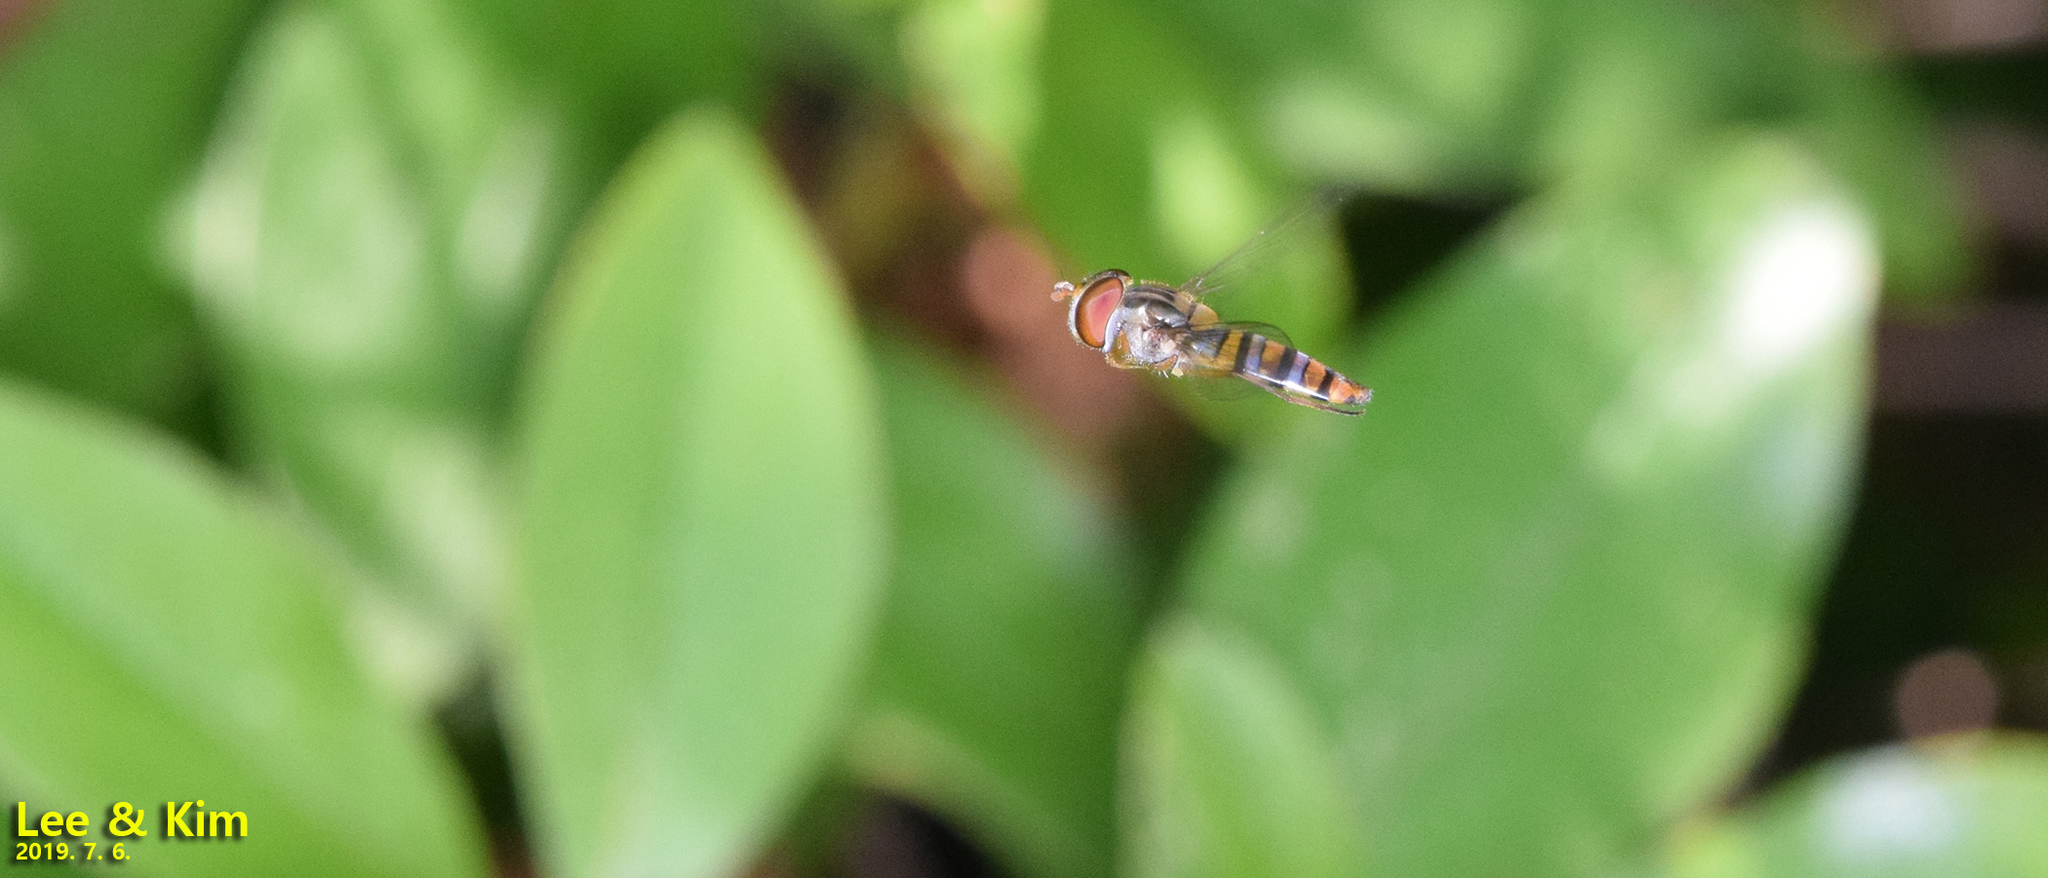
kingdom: Animalia
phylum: Arthropoda
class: Insecta
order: Diptera
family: Syrphidae
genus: Episyrphus
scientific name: Episyrphus balteatus
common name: Marmalade hoverfly
